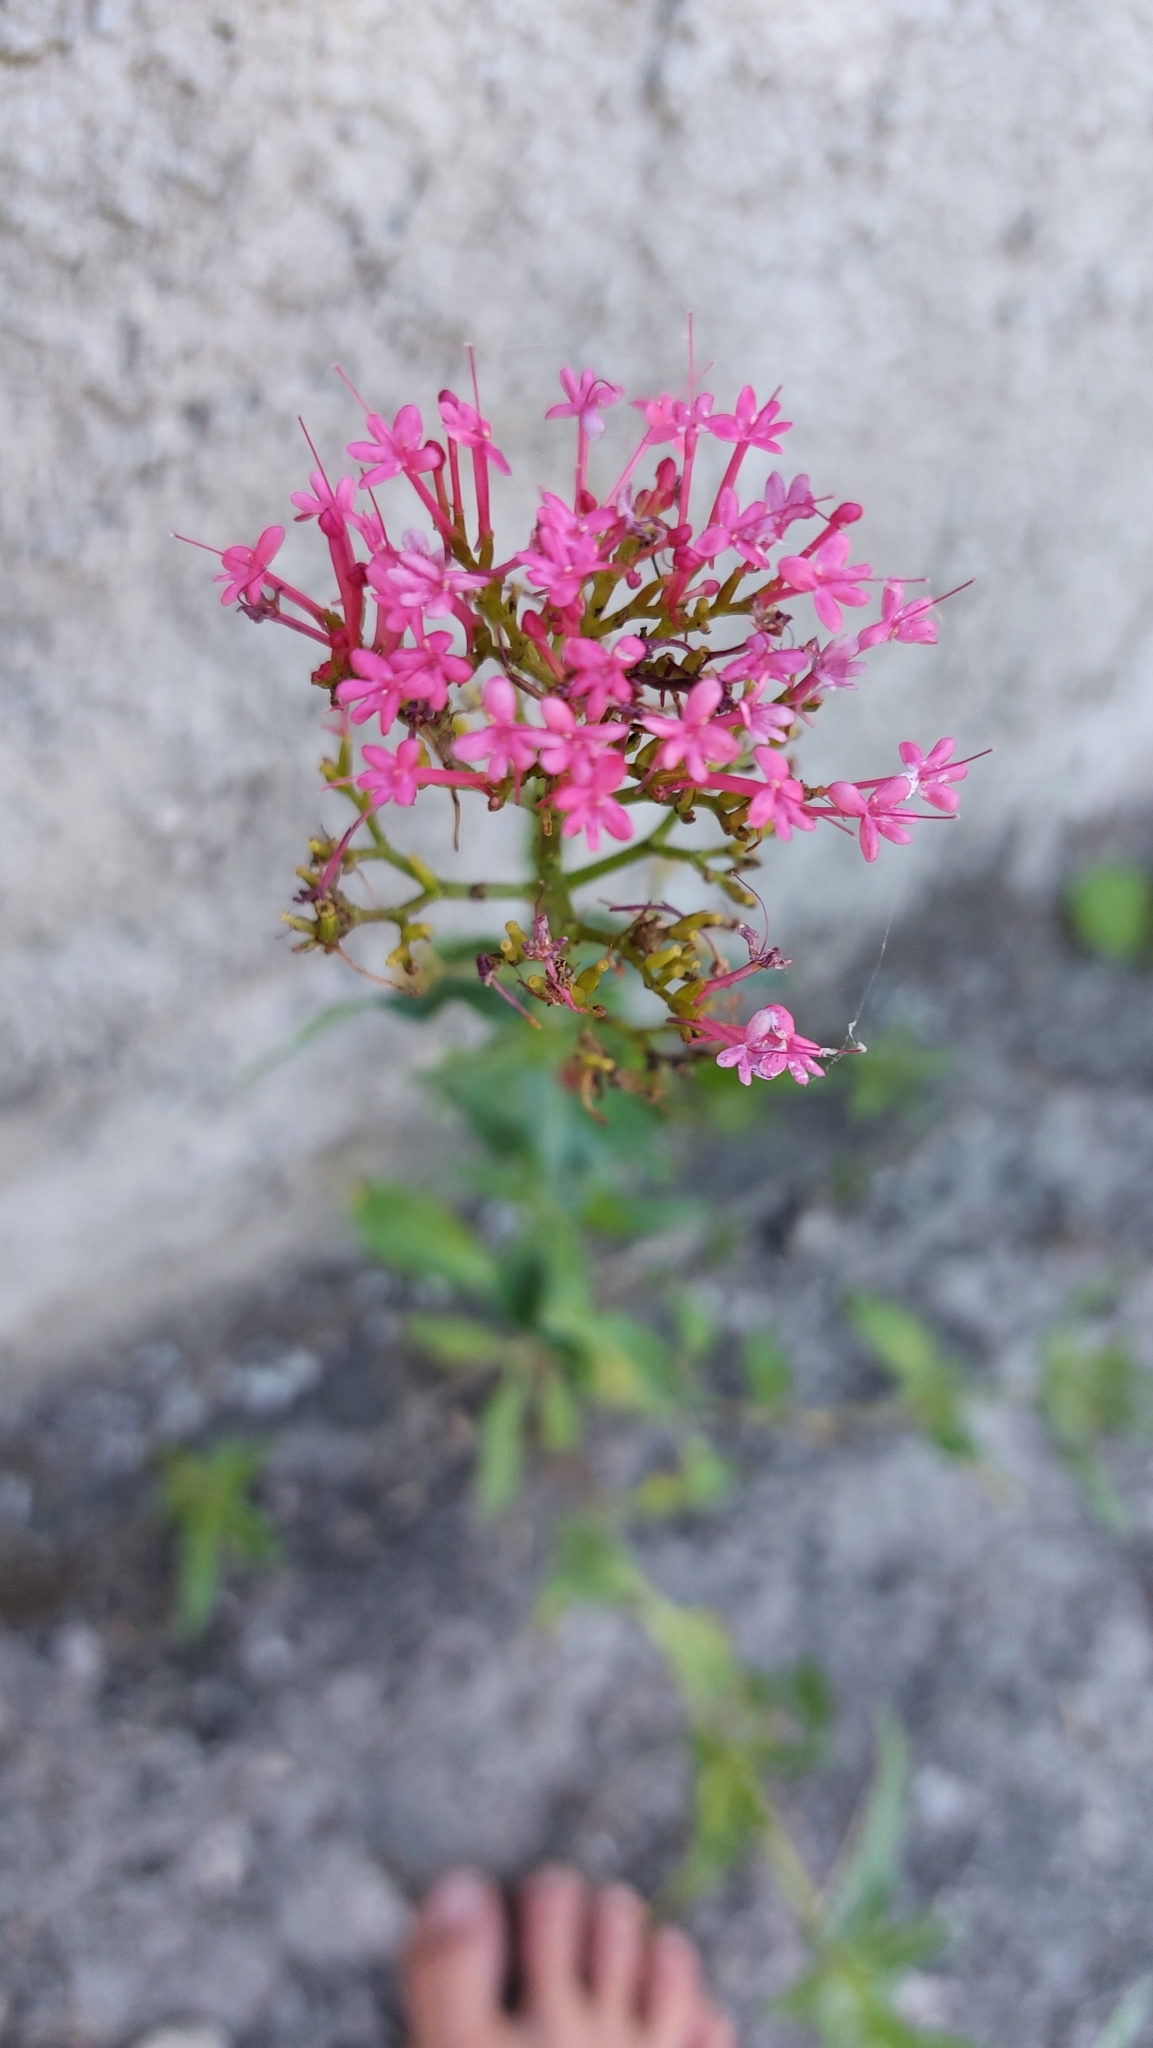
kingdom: Plantae
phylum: Tracheophyta
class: Magnoliopsida
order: Dipsacales
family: Caprifoliaceae
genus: Centranthus
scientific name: Centranthus ruber
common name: Red valerian
